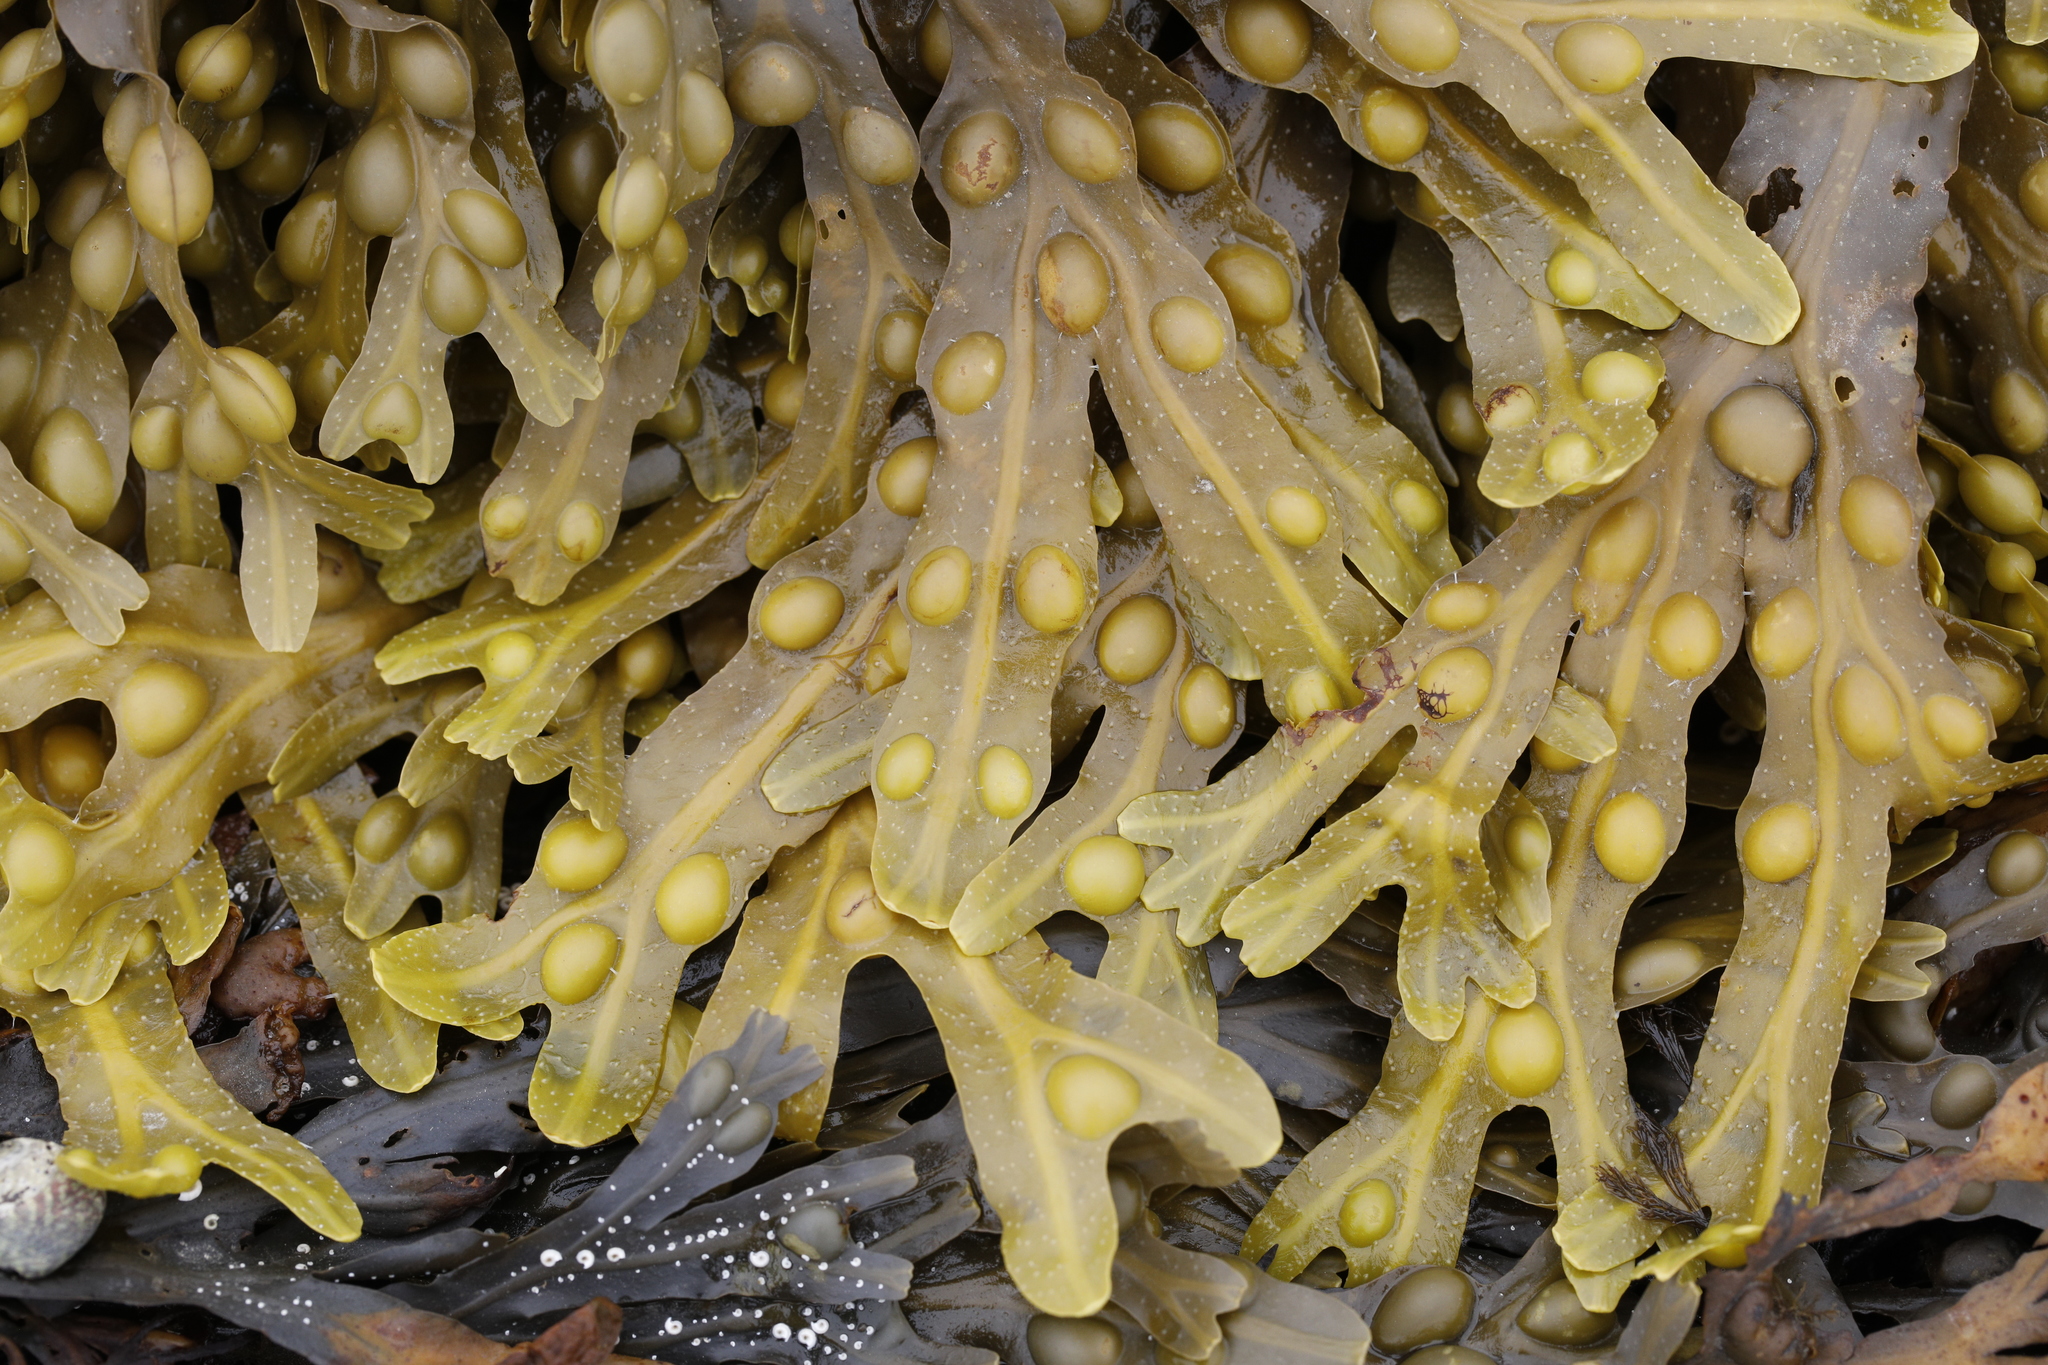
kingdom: Chromista
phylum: Ochrophyta
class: Phaeophyceae
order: Fucales
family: Fucaceae
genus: Fucus
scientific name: Fucus vesiculosus
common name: Bladder wrack
